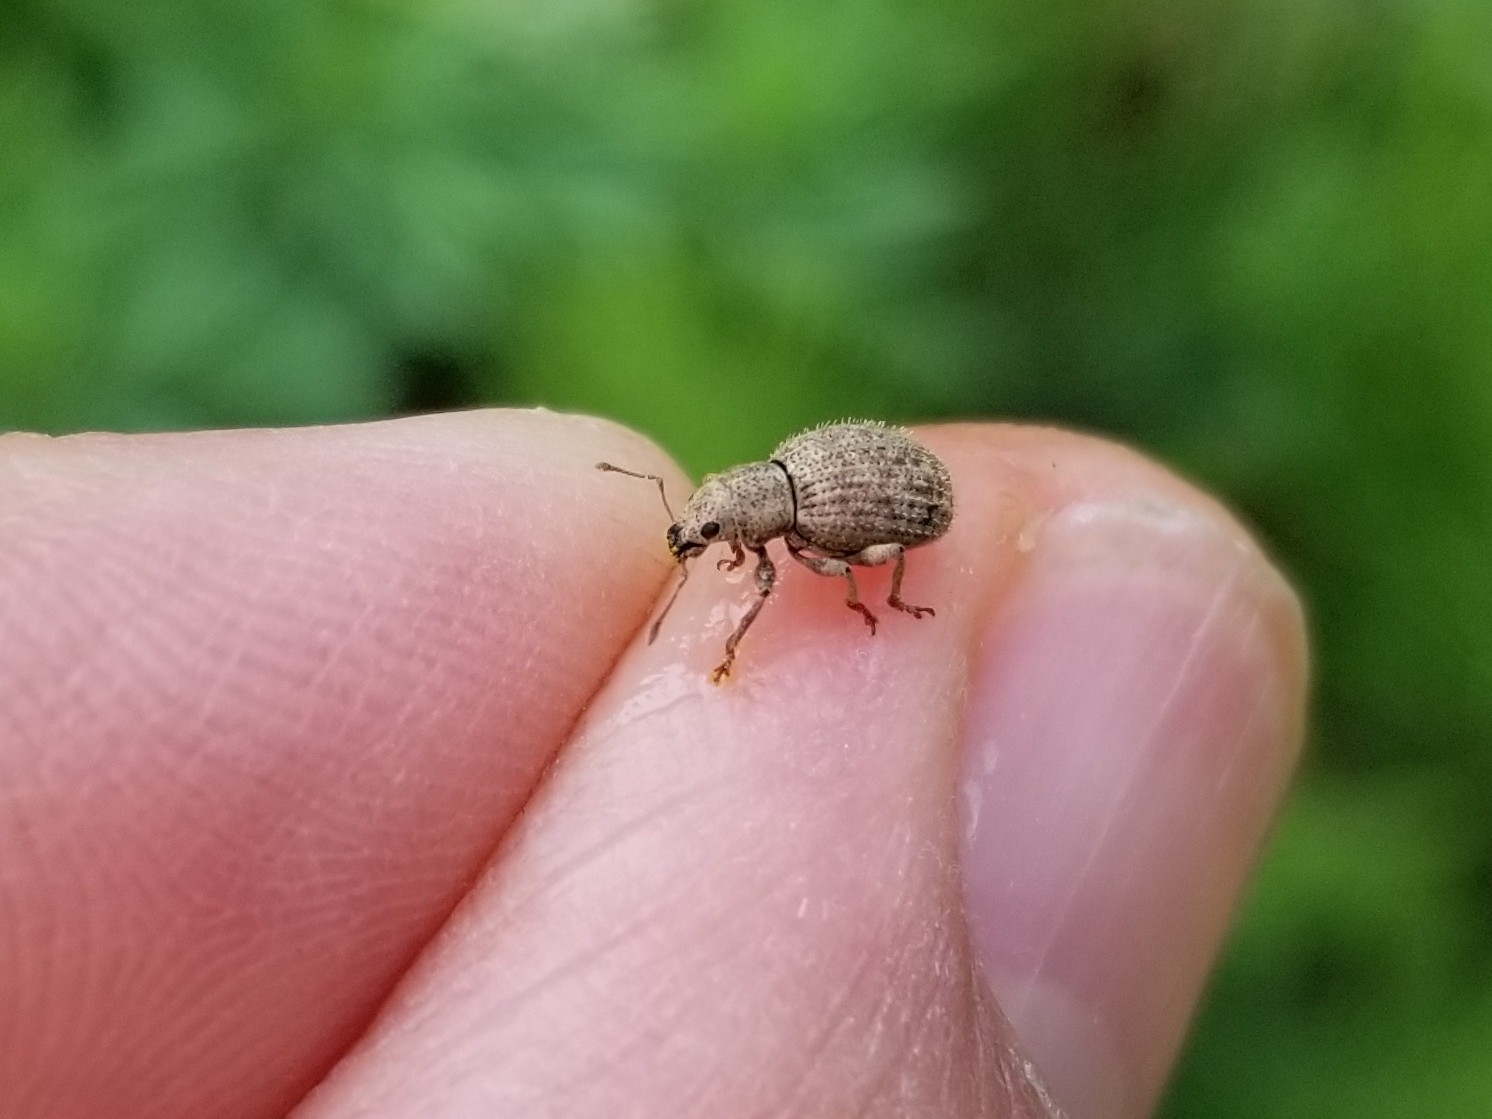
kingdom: Animalia
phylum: Arthropoda
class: Insecta
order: Coleoptera
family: Curculionidae
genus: Sciaphilus
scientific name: Sciaphilus asperatus
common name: Weevil
